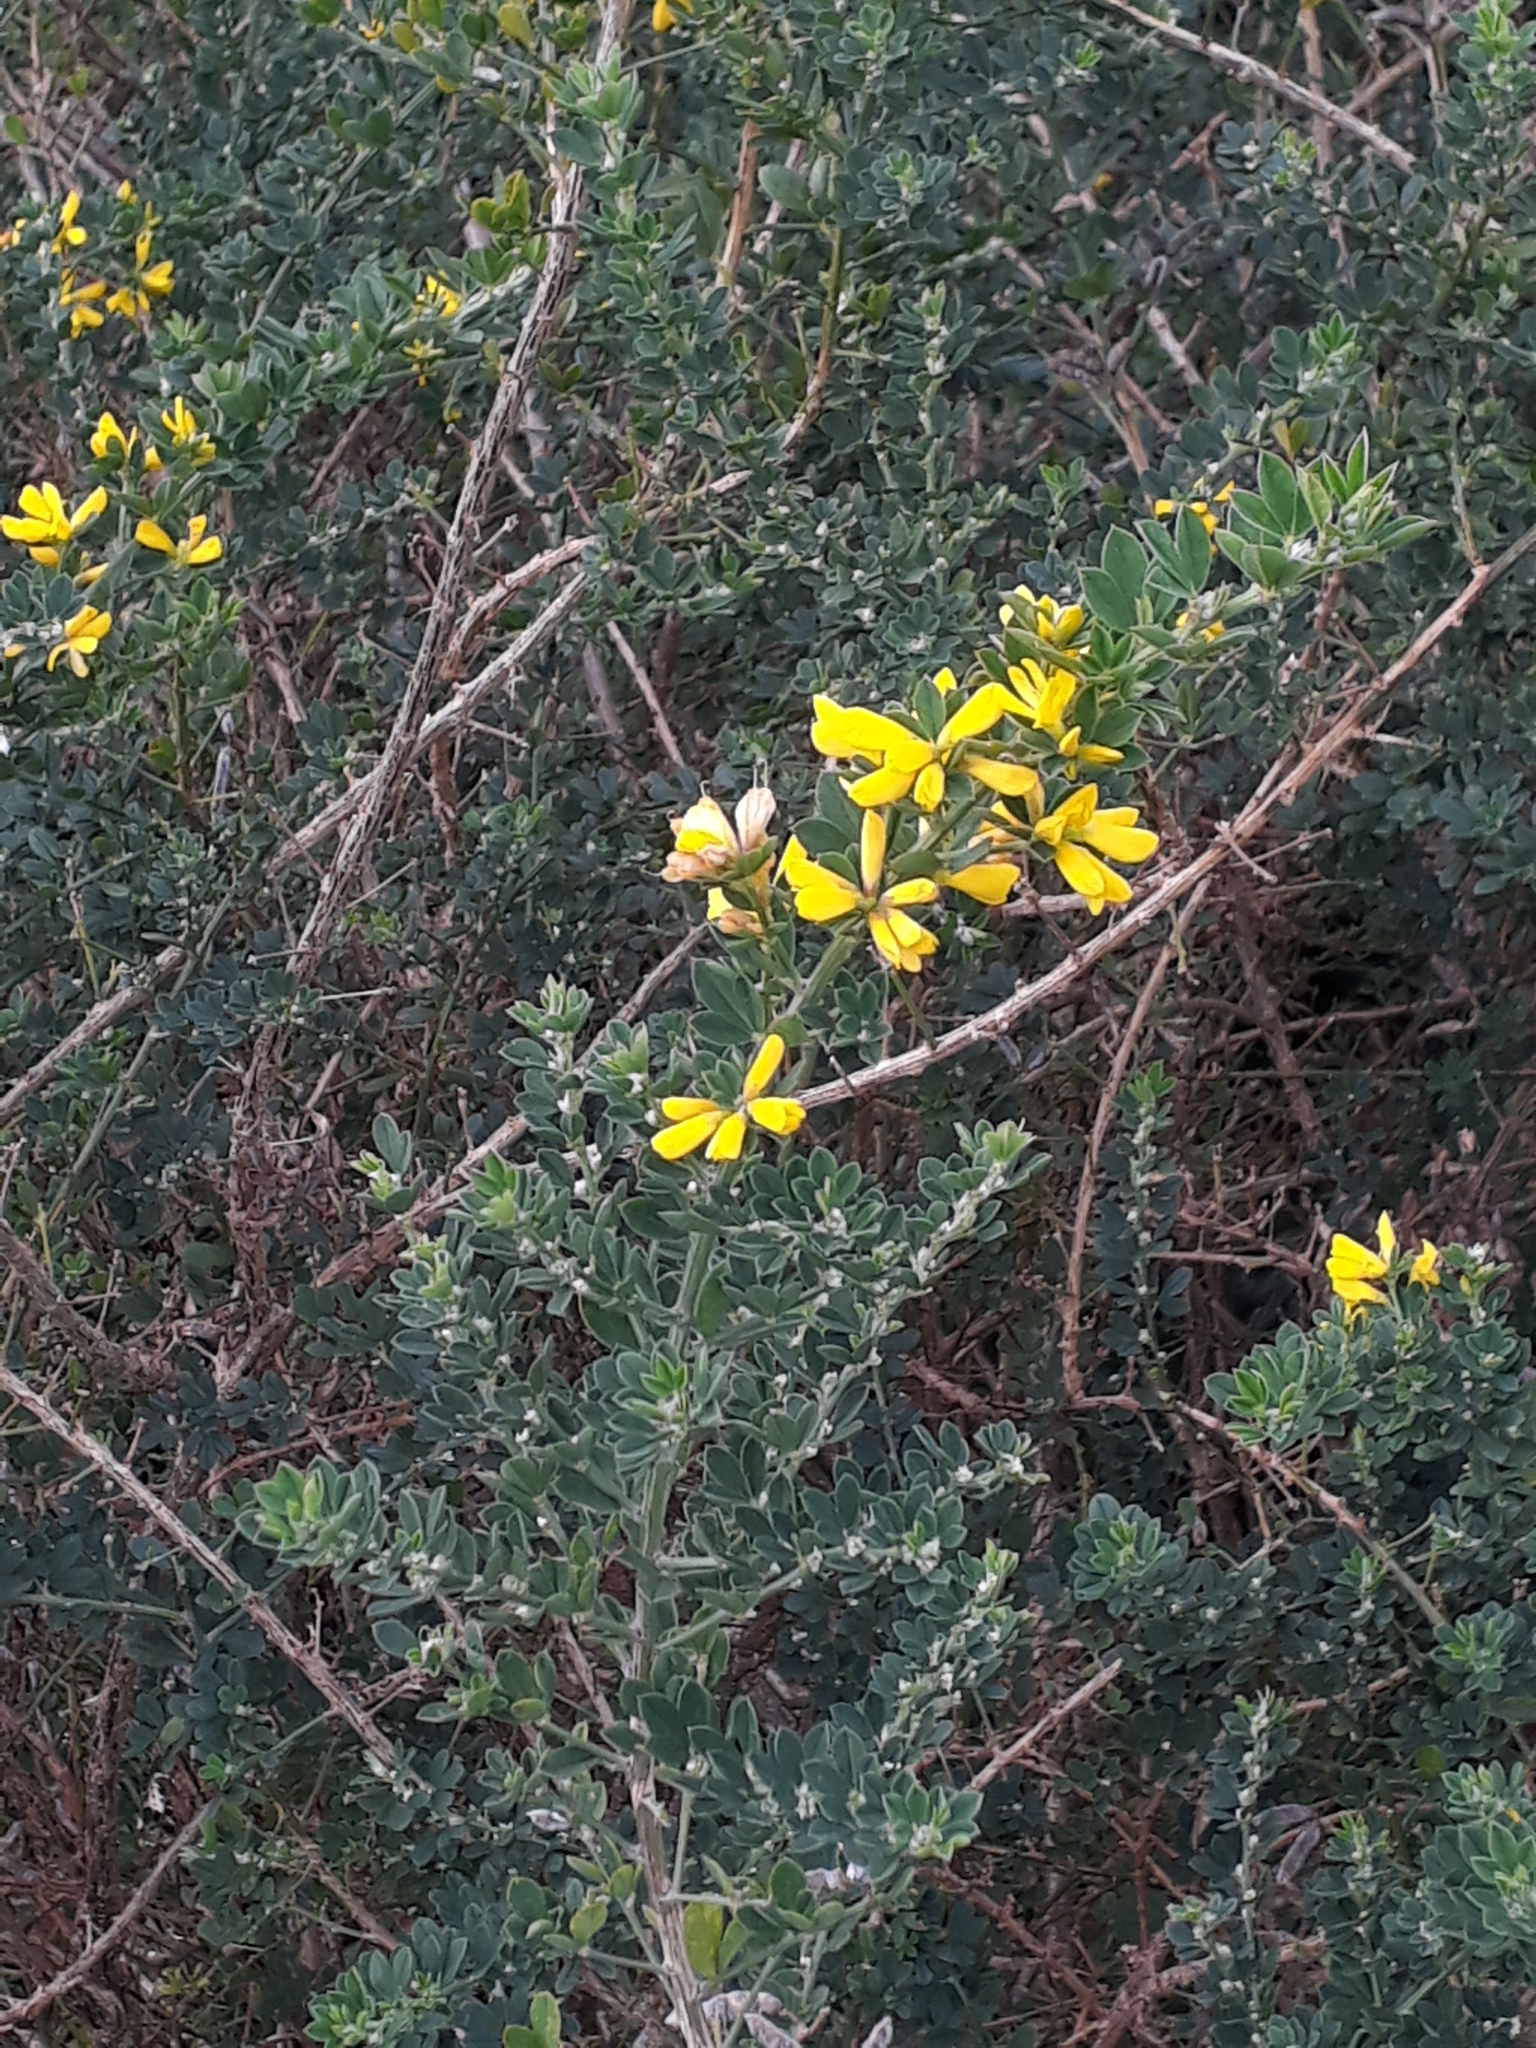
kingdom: Plantae
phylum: Tracheophyta
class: Magnoliopsida
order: Fabales
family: Fabaceae
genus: Genista
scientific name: Genista monspessulana
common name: Montpellier broom
